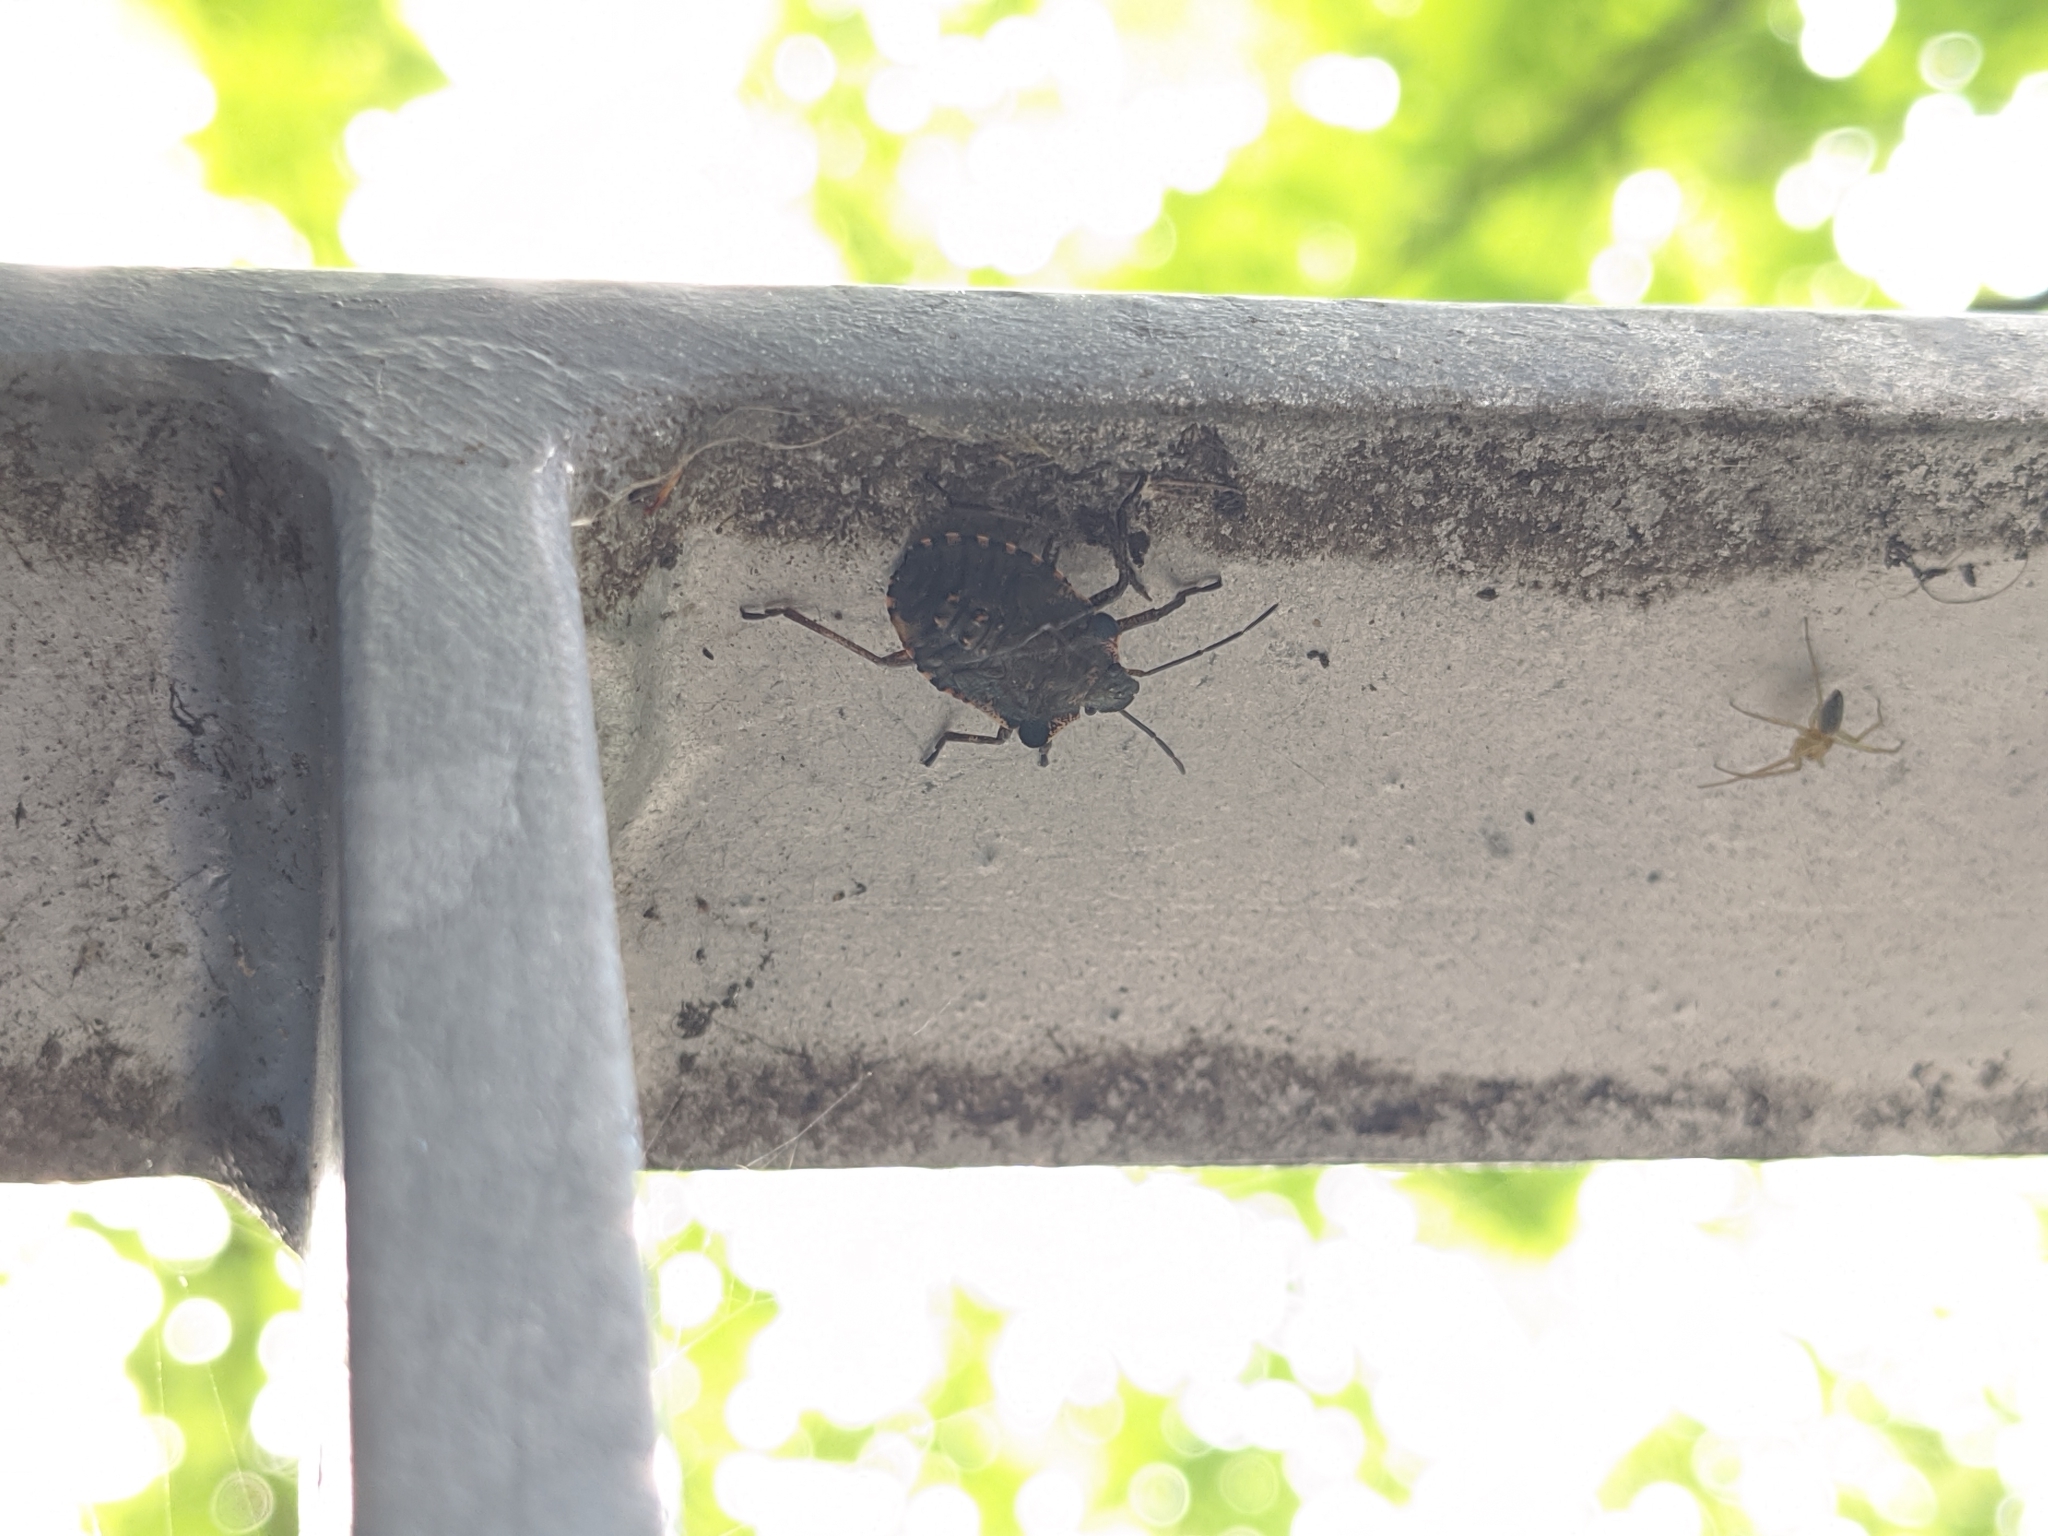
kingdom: Animalia
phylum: Arthropoda
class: Insecta
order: Hemiptera
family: Pentatomidae
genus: Pentatoma
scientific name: Pentatoma rufipes
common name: Forest bug
